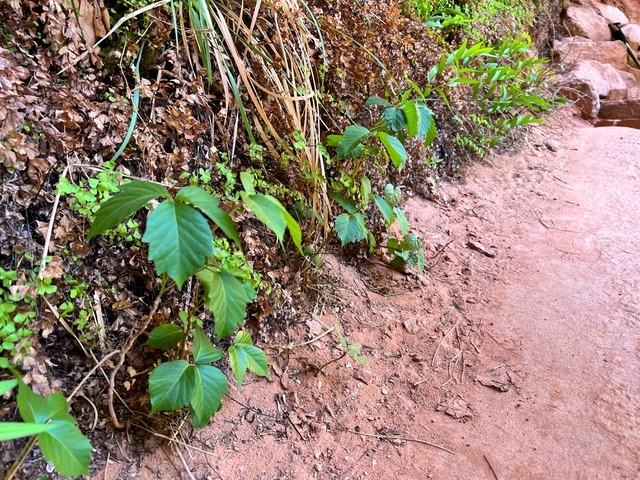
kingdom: Plantae
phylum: Tracheophyta
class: Magnoliopsida
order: Sapindales
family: Anacardiaceae
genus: Toxicodendron
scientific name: Toxicodendron rydbergii
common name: Rydberg's poison-ivy
